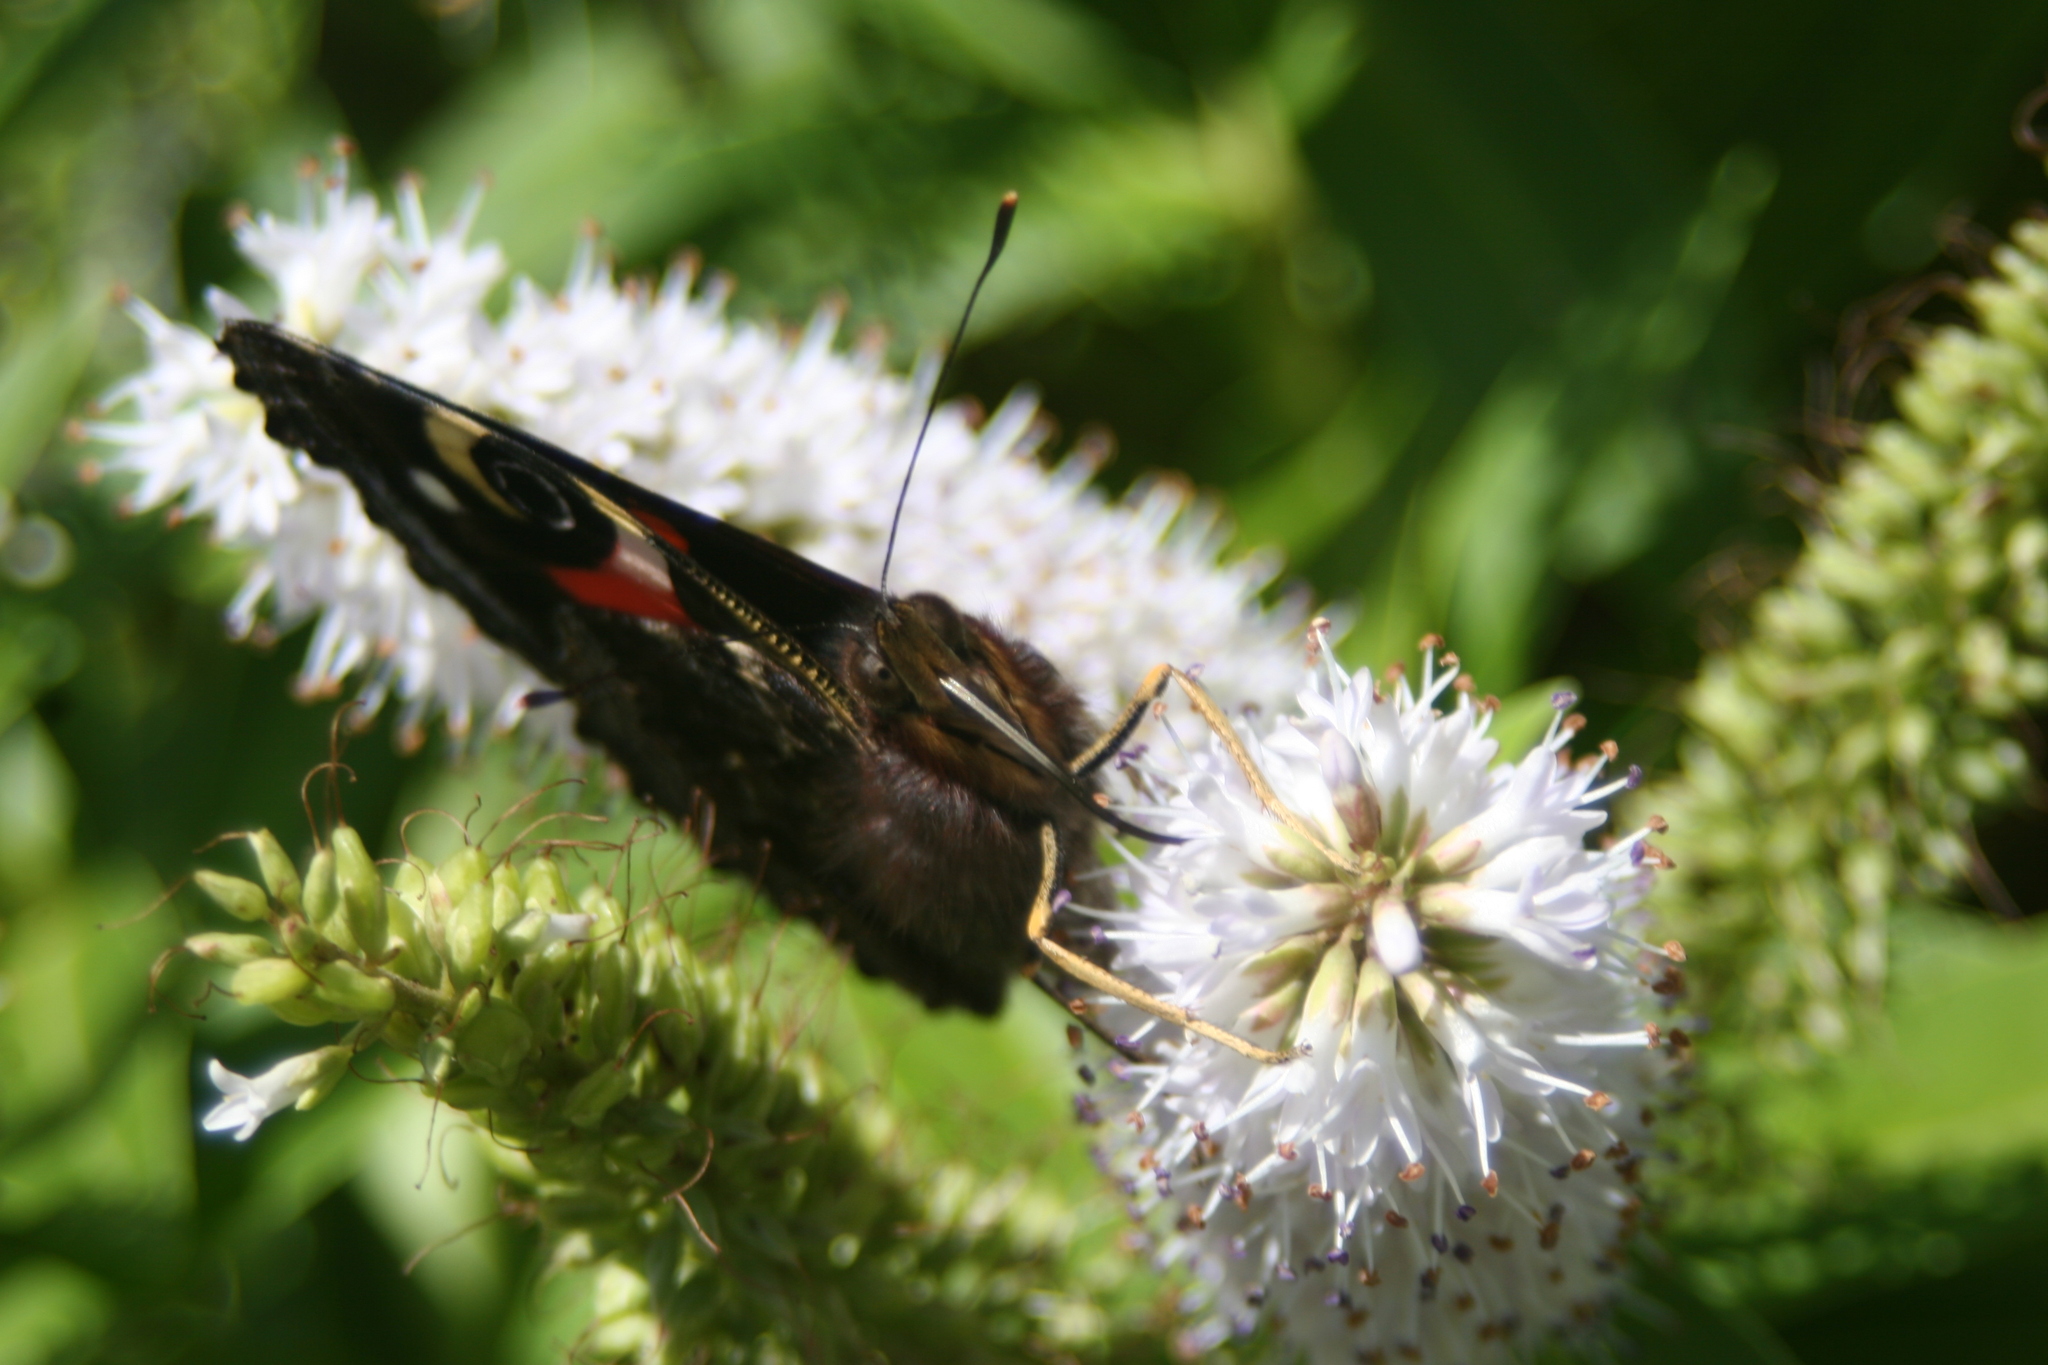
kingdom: Animalia
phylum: Arthropoda
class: Insecta
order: Lepidoptera
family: Nymphalidae
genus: Vanessa
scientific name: Vanessa gonerilla
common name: New zealand red admiral
